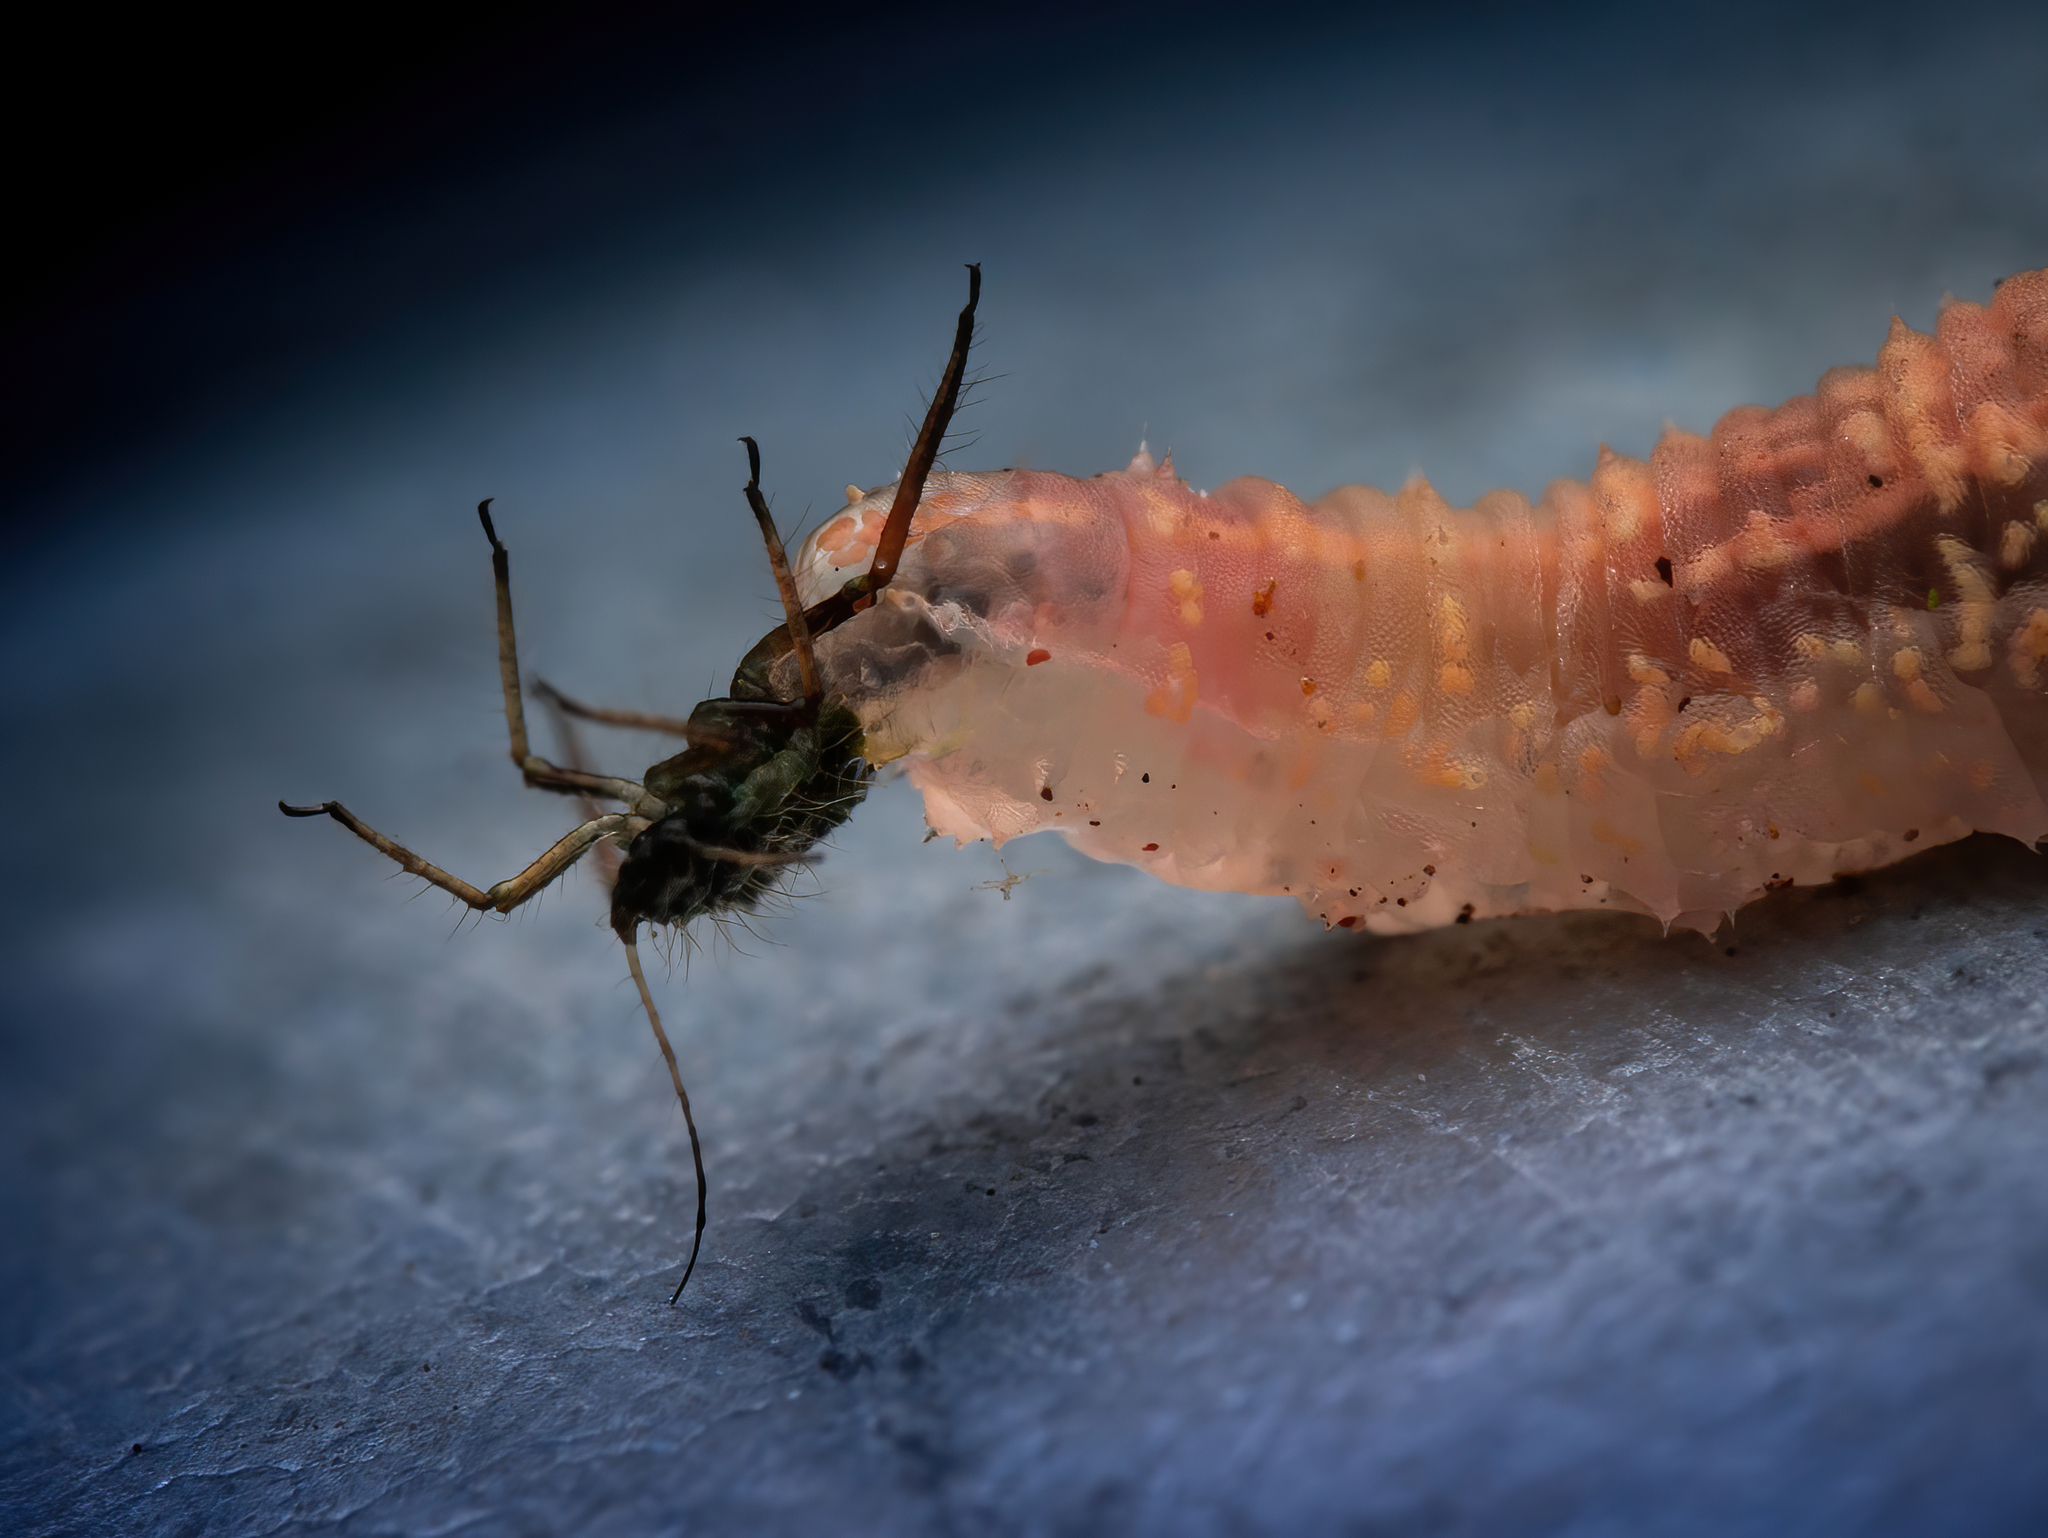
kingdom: Animalia
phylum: Arthropoda
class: Insecta
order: Diptera
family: Syrphidae
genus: Syrphus
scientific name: Syrphus
